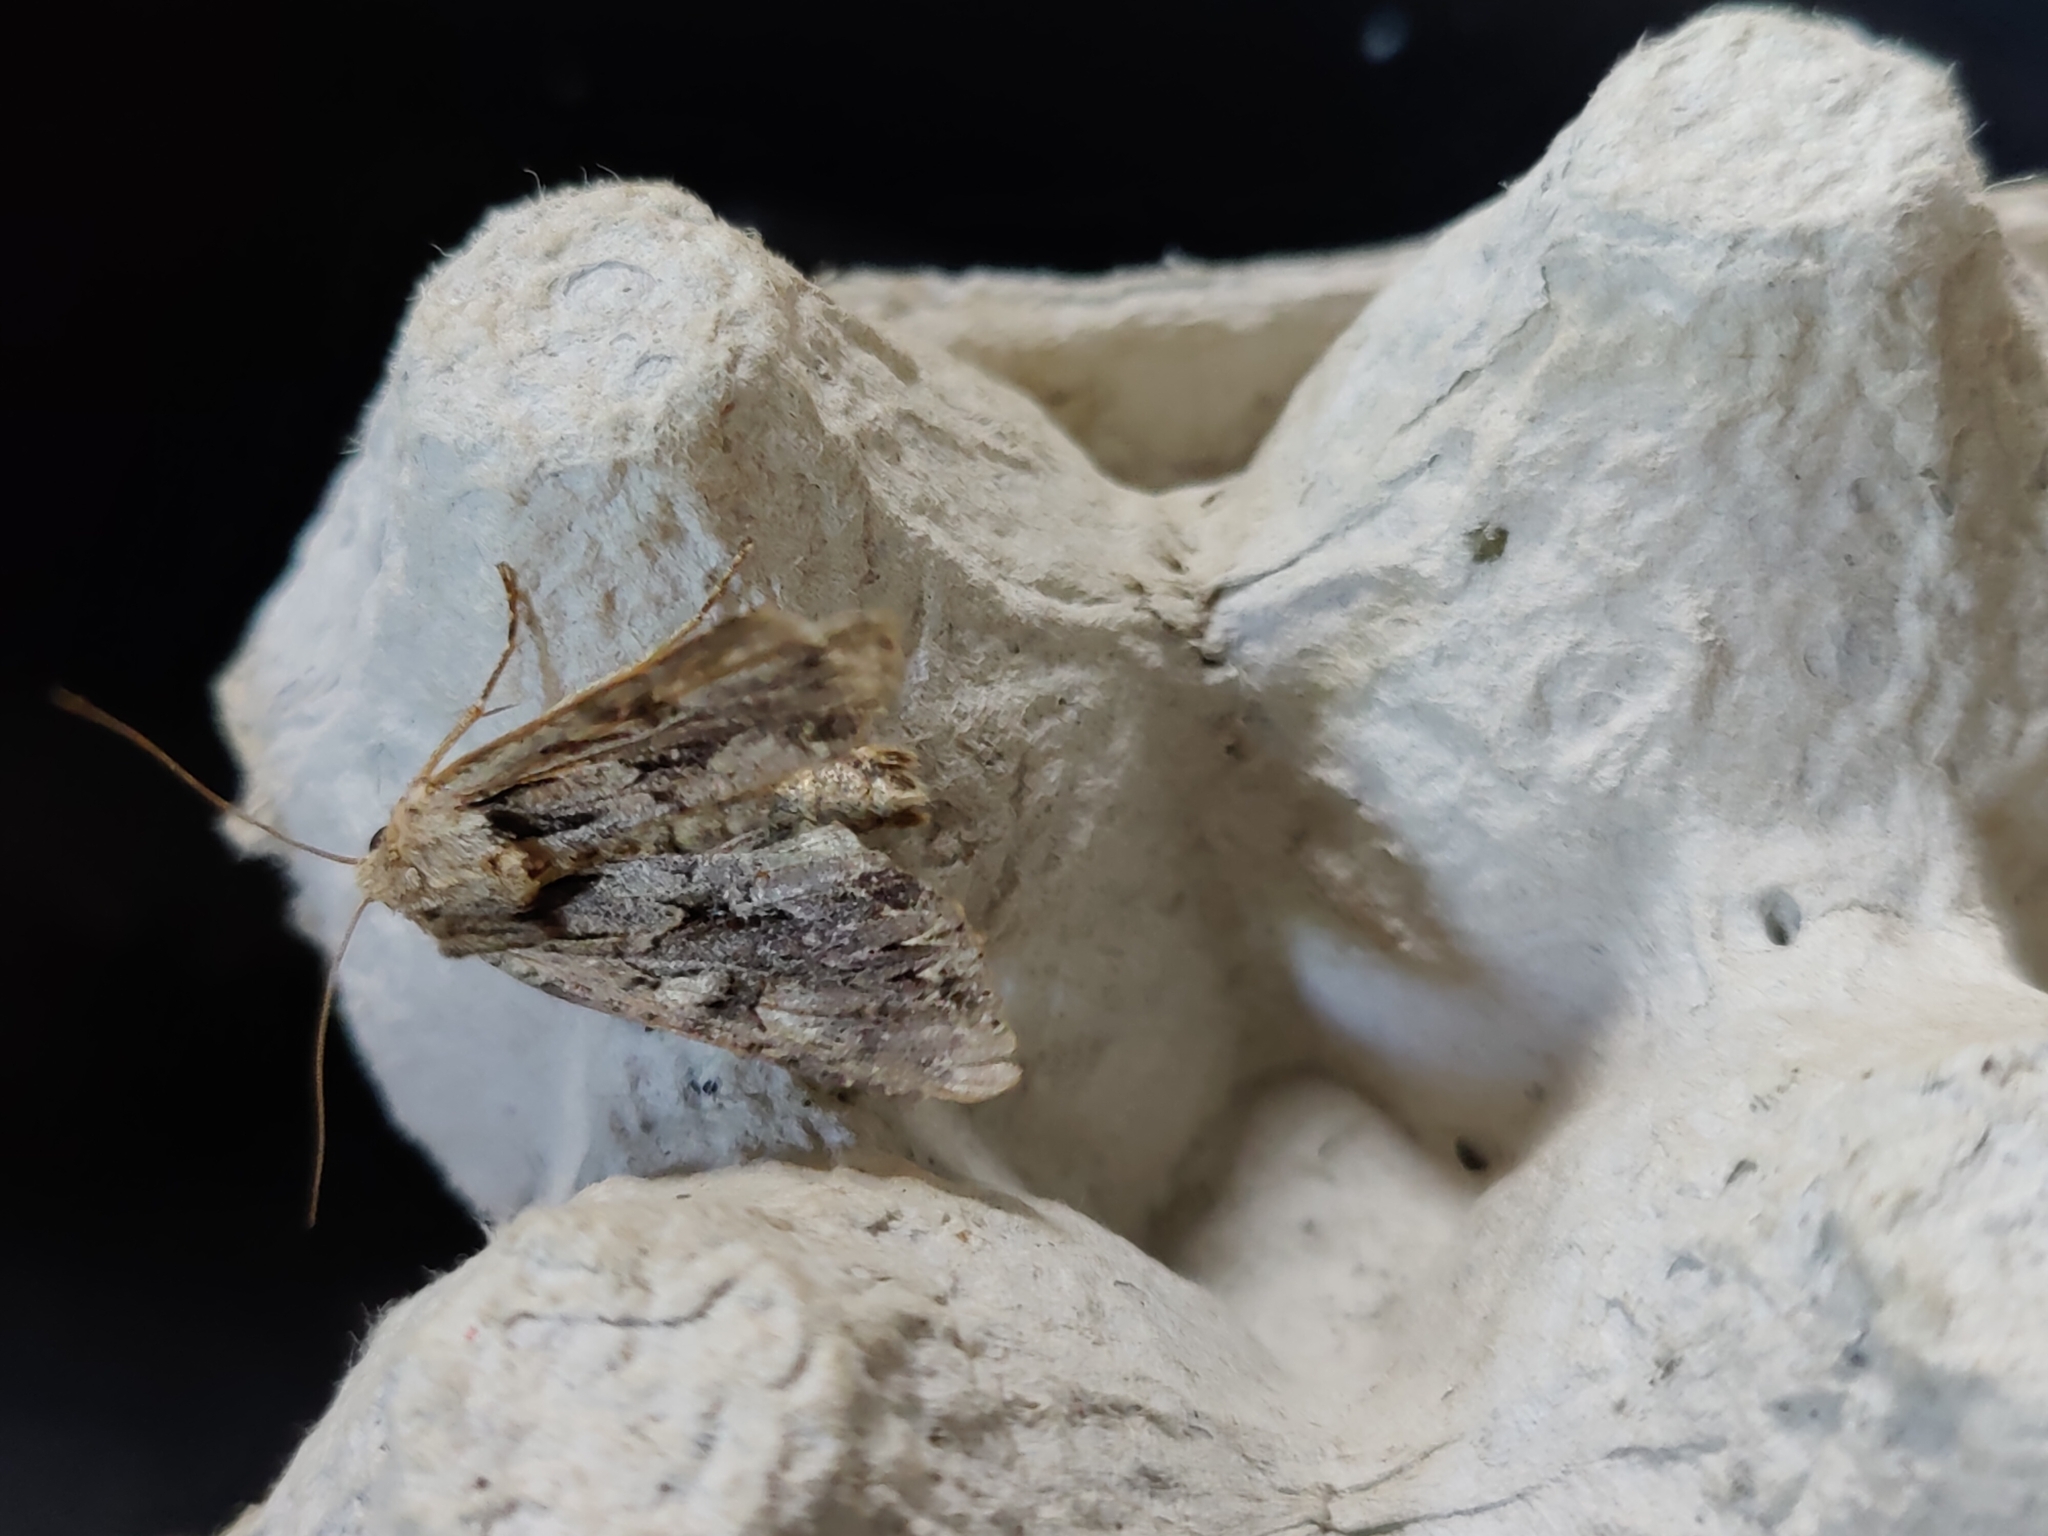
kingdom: Animalia
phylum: Arthropoda
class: Insecta
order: Lepidoptera
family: Noctuidae
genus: Apamea
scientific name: Apamea monoglypha
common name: Dark arches
